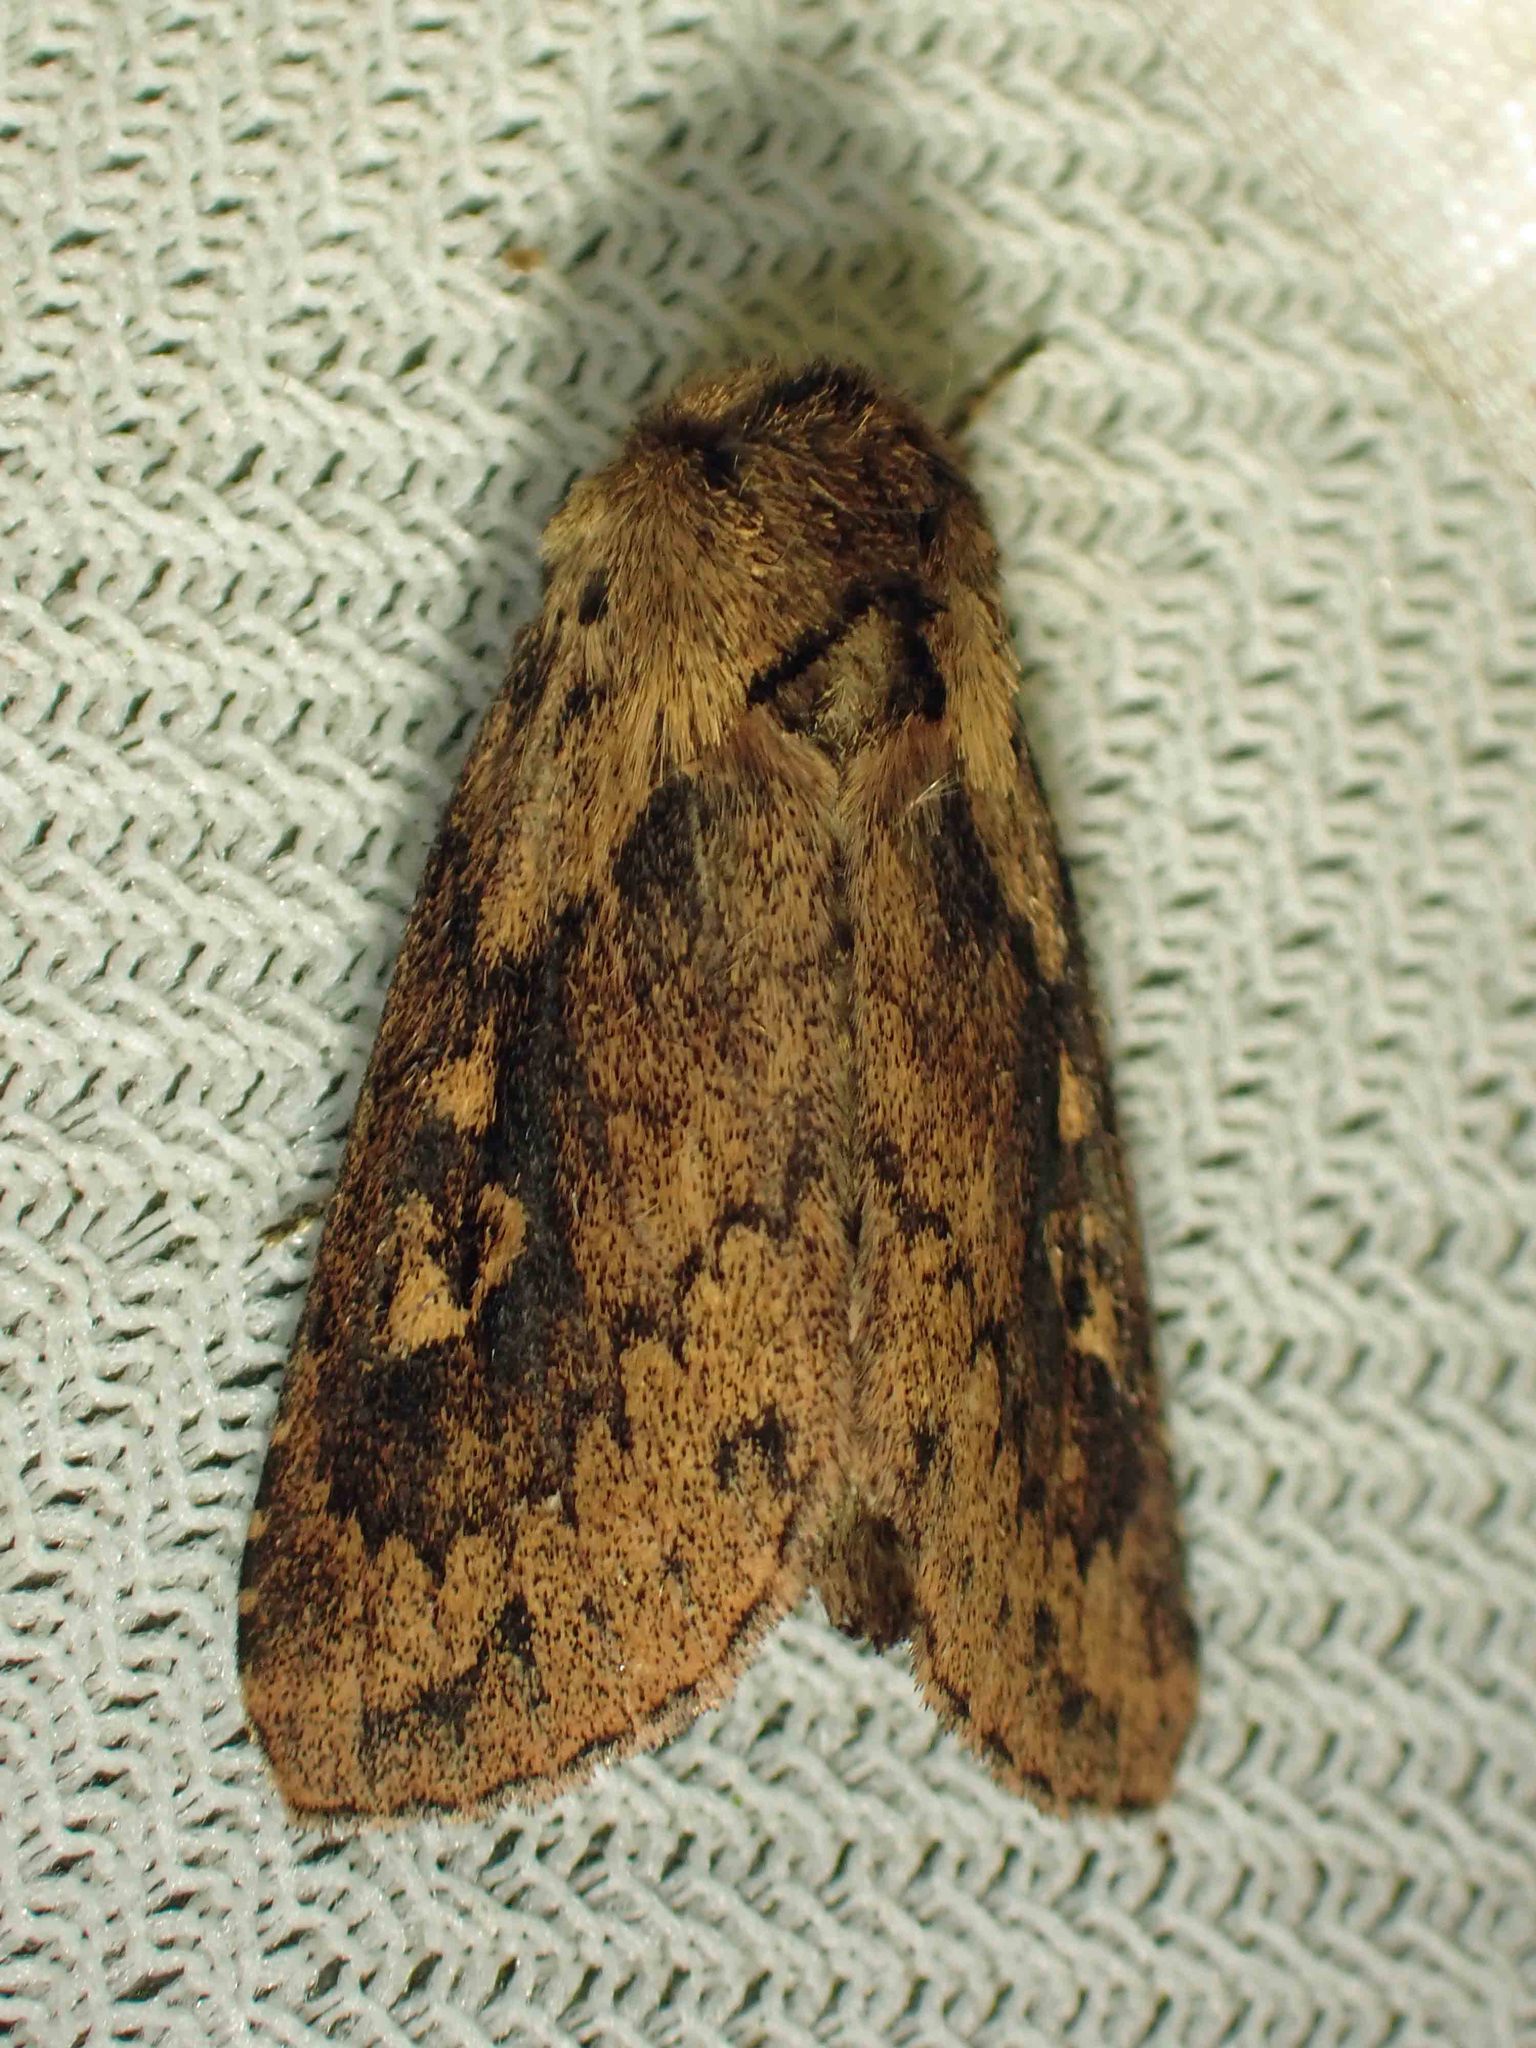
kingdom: Animalia
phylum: Arthropoda
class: Insecta
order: Lepidoptera
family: Noctuidae
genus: Bellura
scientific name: Bellura vulnifica
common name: Black-tailed diver moth
